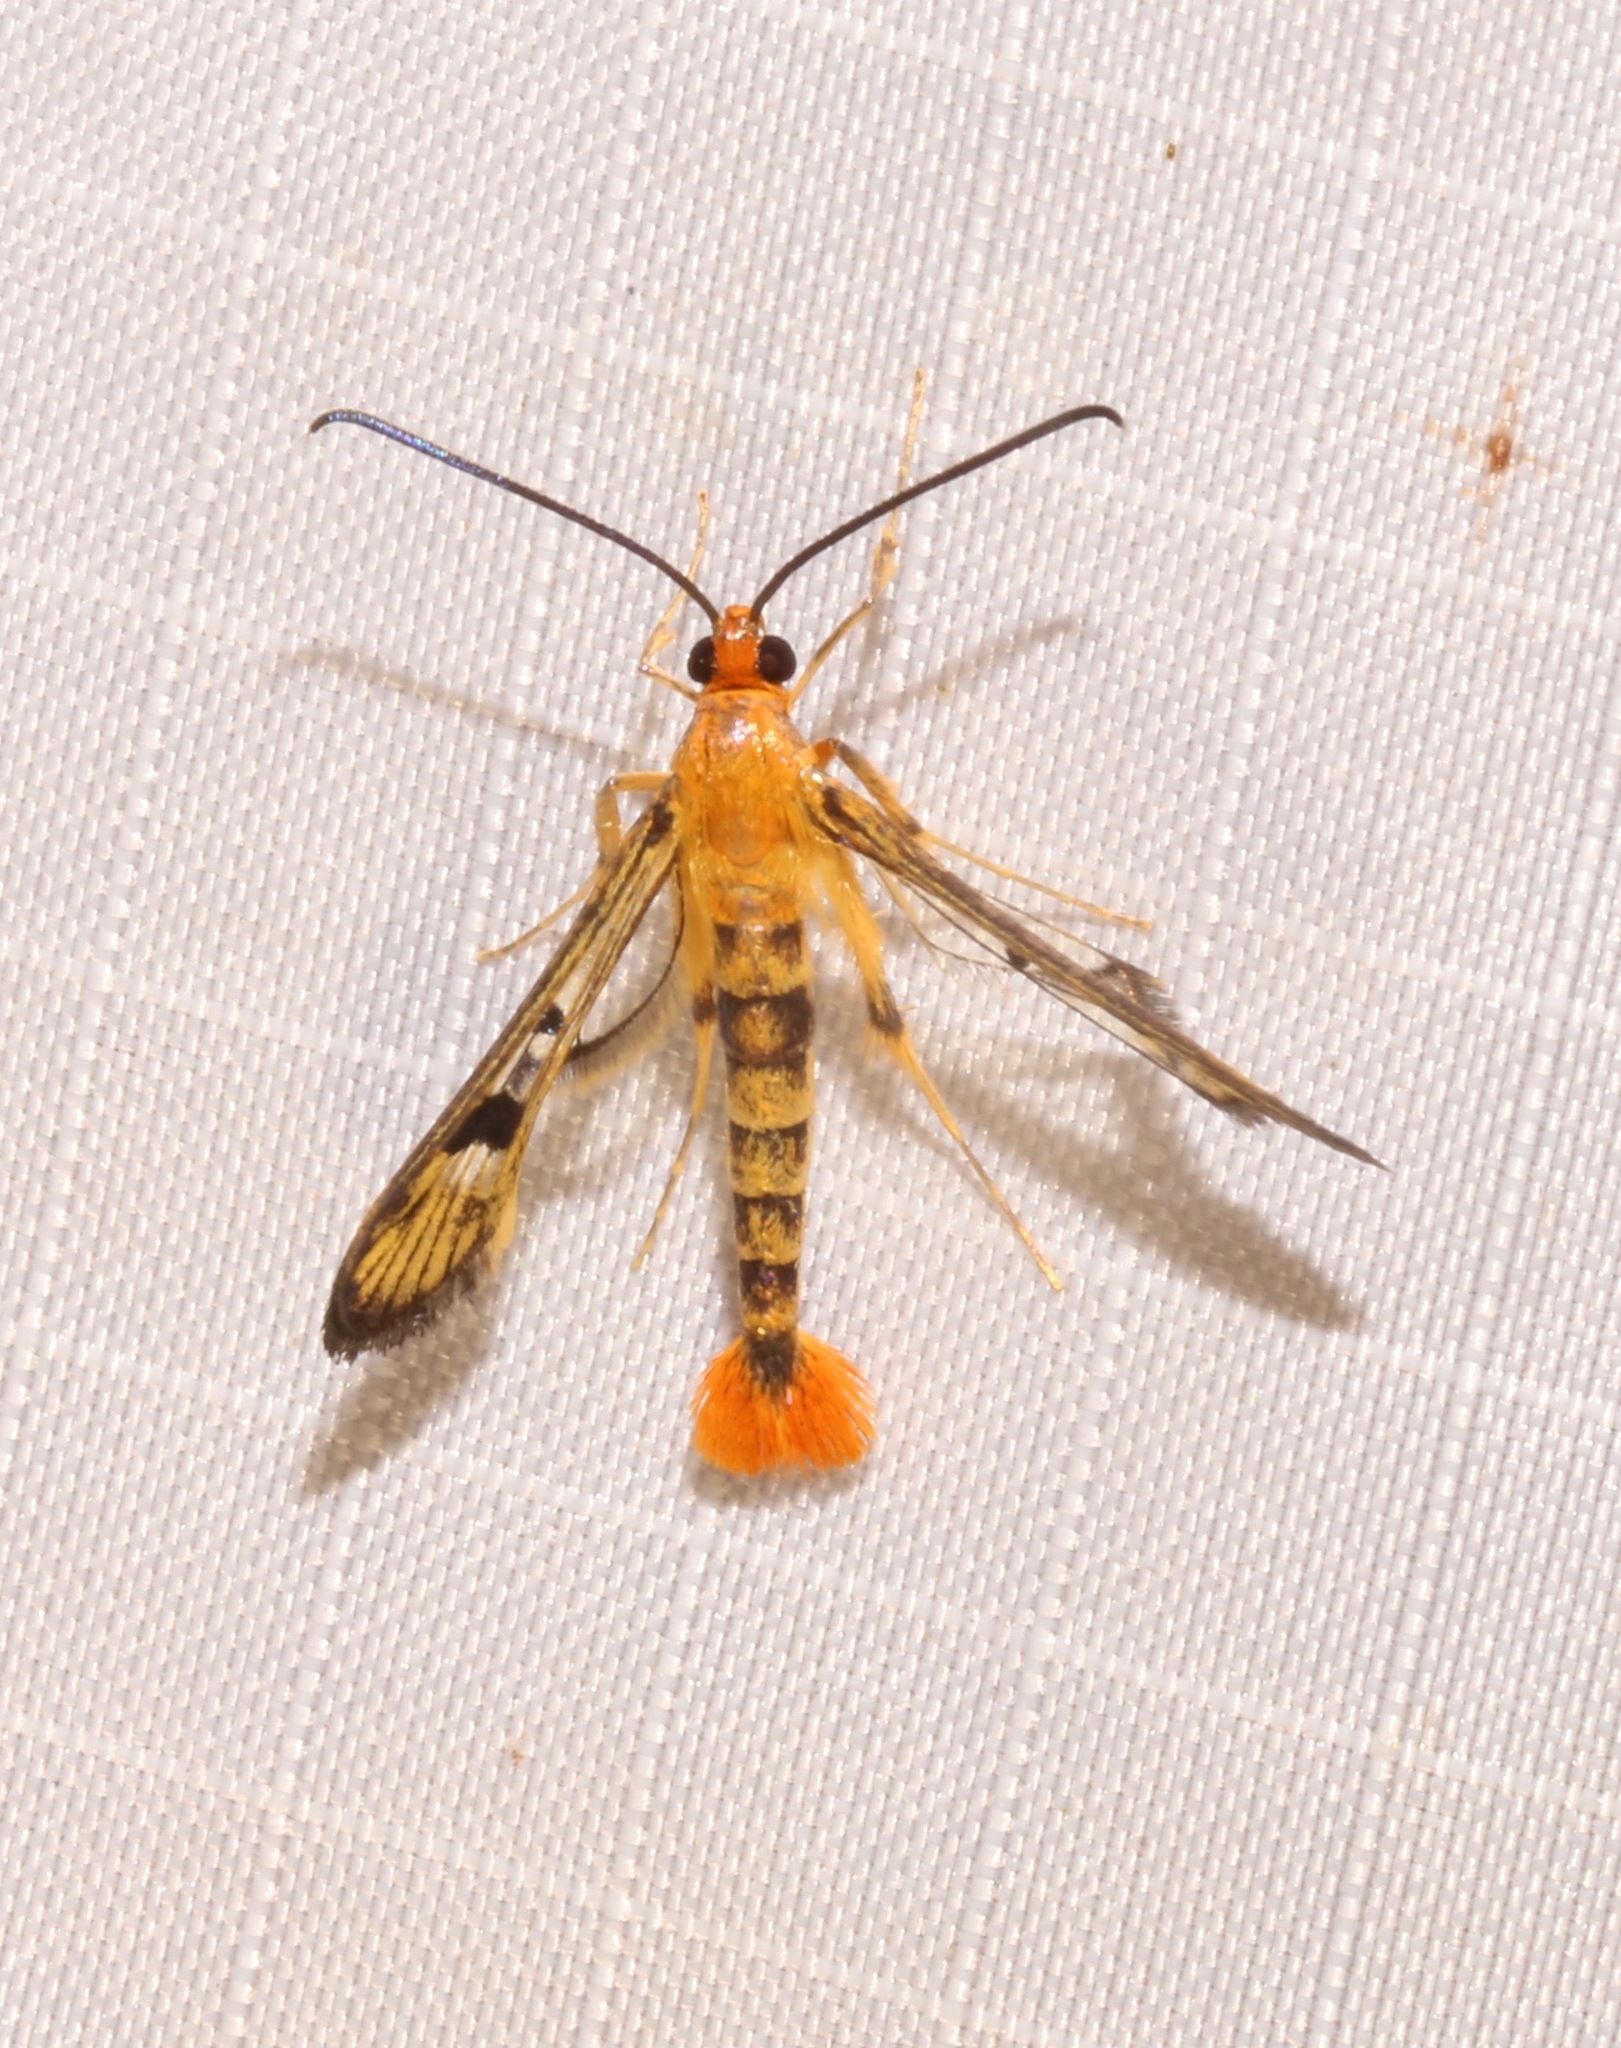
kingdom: Animalia
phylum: Arthropoda
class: Insecta
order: Lepidoptera
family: Sesiidae
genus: Synanthedon
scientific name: Synanthedon acerni
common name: Maple callus borer moth
